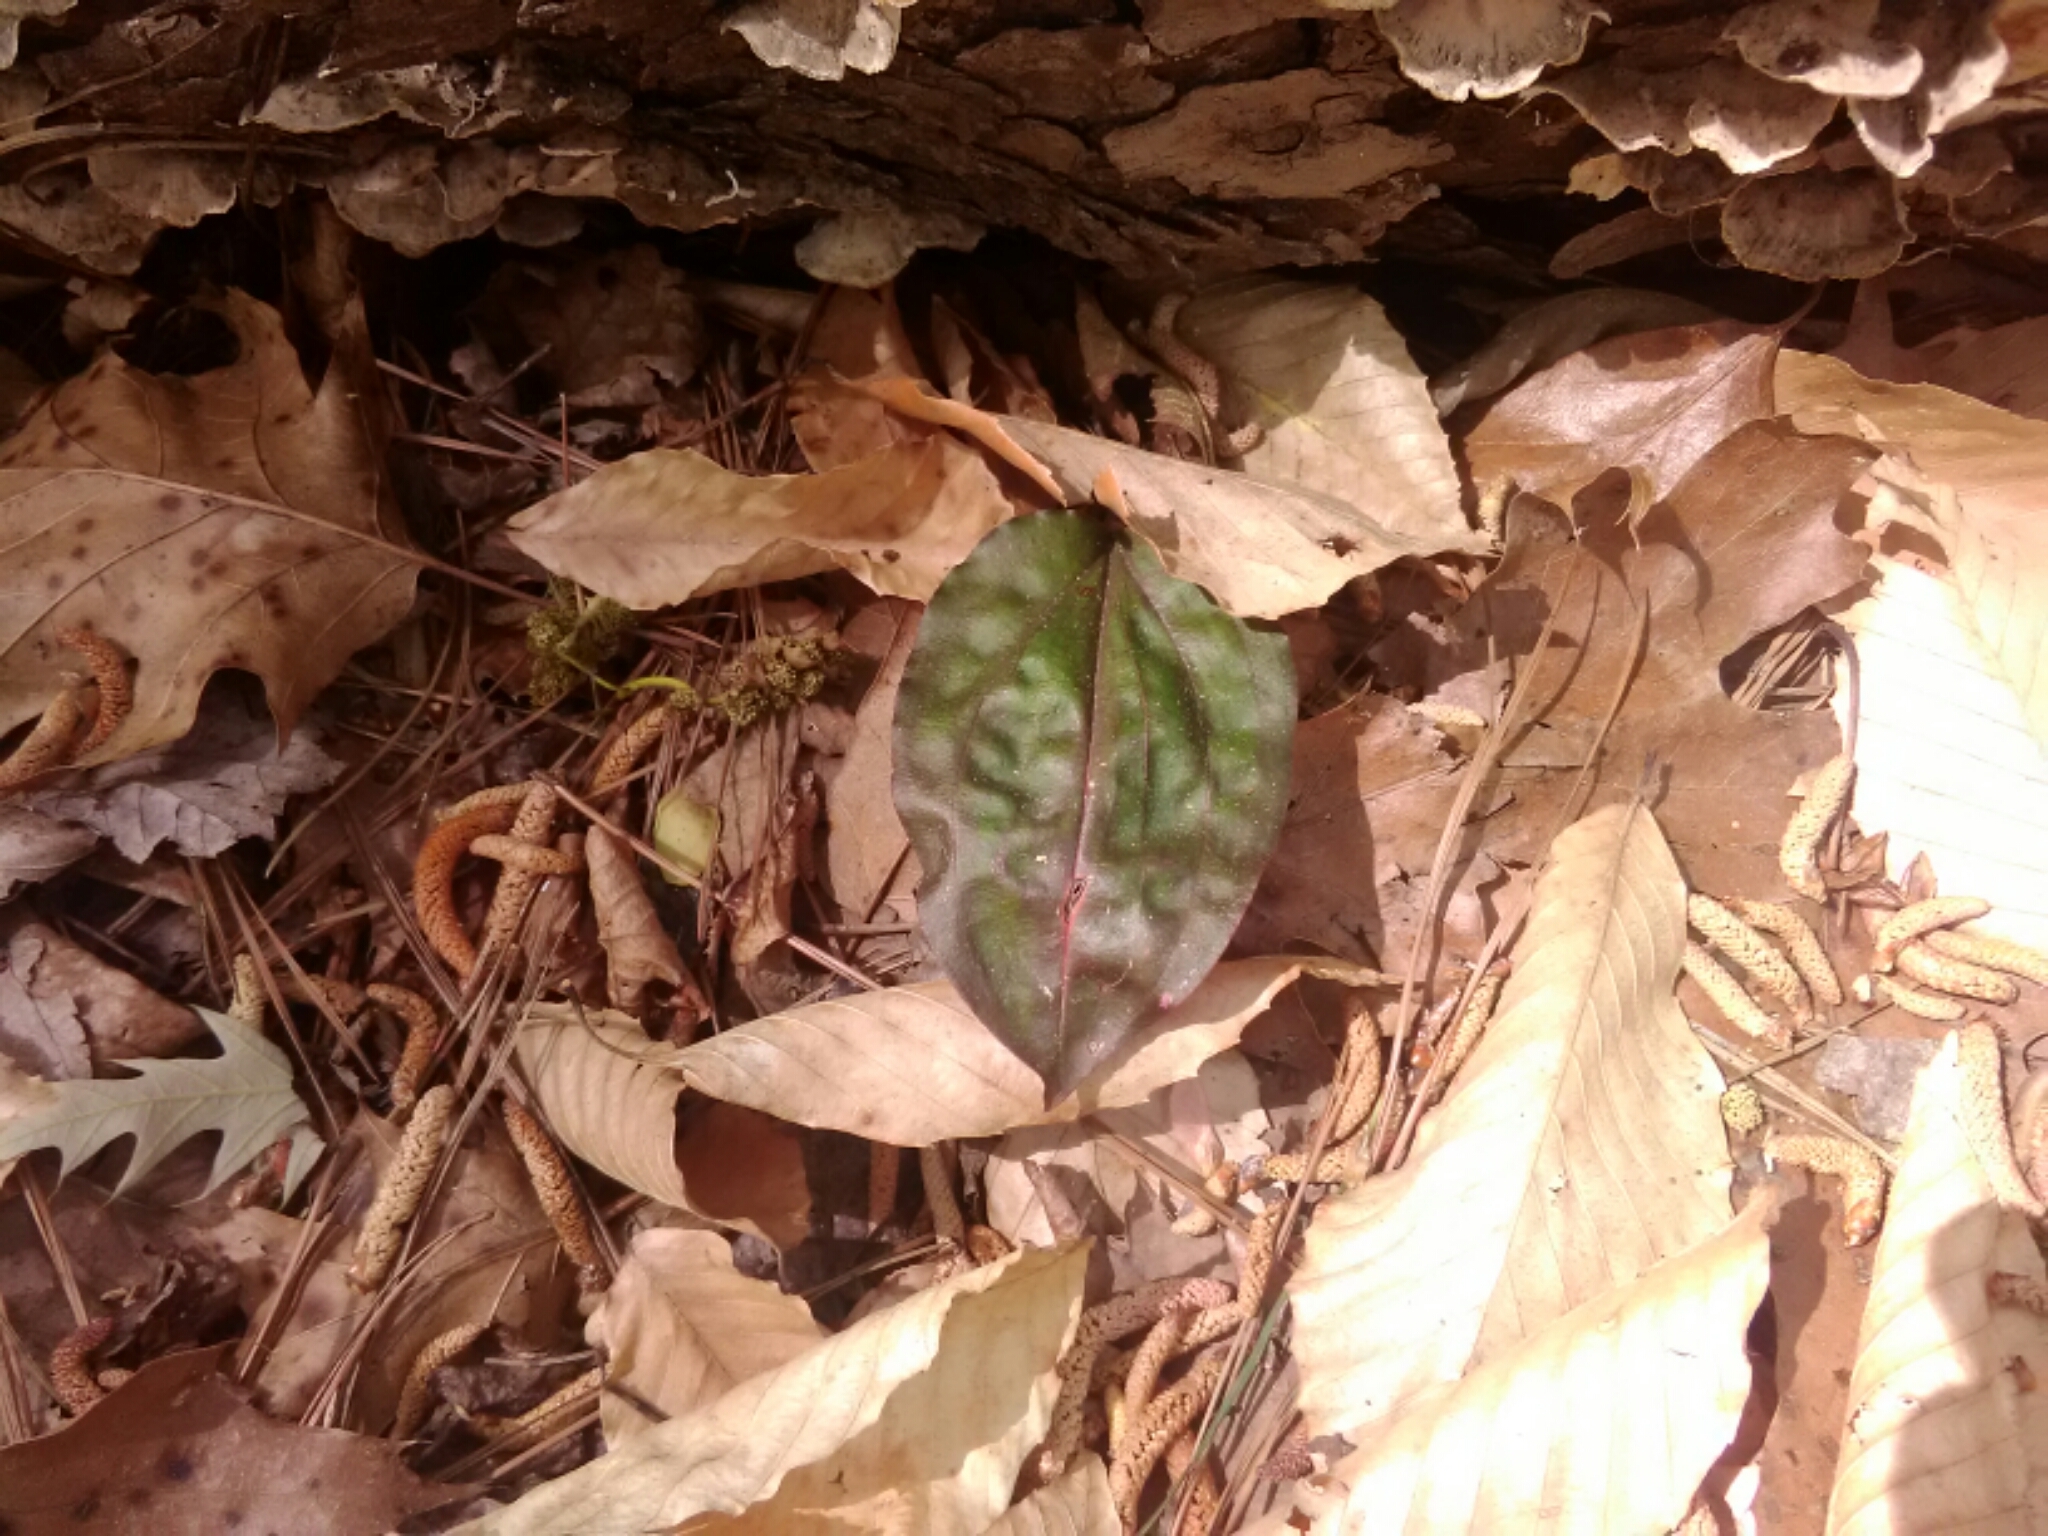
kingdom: Plantae
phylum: Tracheophyta
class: Liliopsida
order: Asparagales
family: Orchidaceae
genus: Tipularia
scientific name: Tipularia discolor
